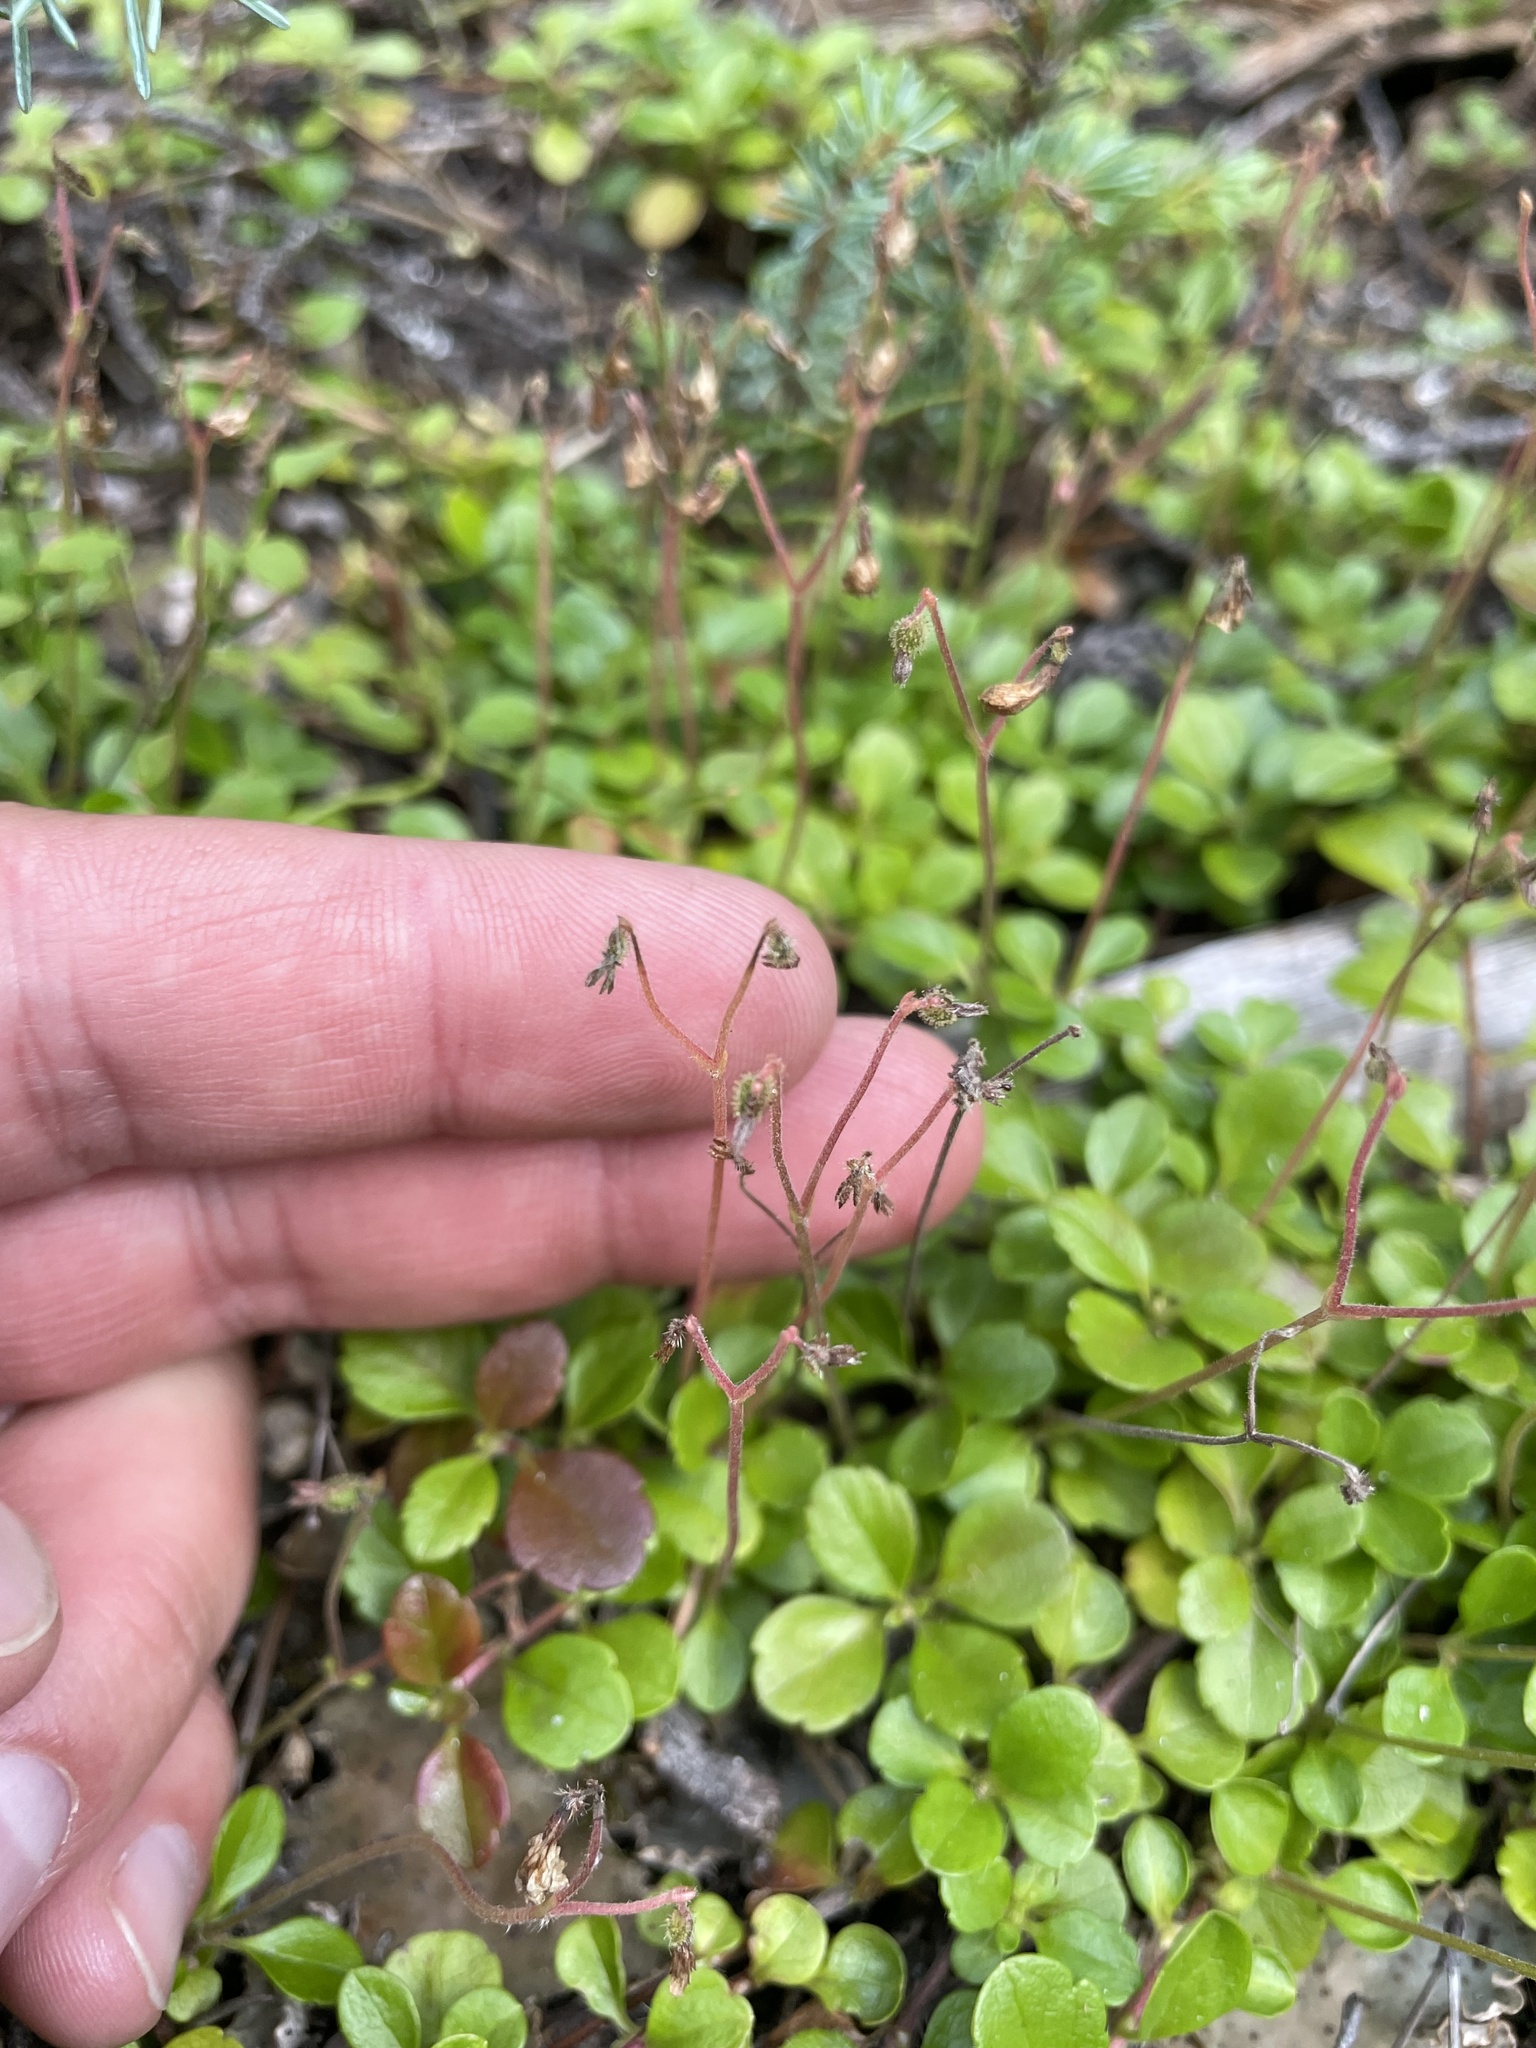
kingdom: Plantae
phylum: Tracheophyta
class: Magnoliopsida
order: Dipsacales
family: Caprifoliaceae
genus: Linnaea
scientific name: Linnaea borealis
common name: Twinflower
